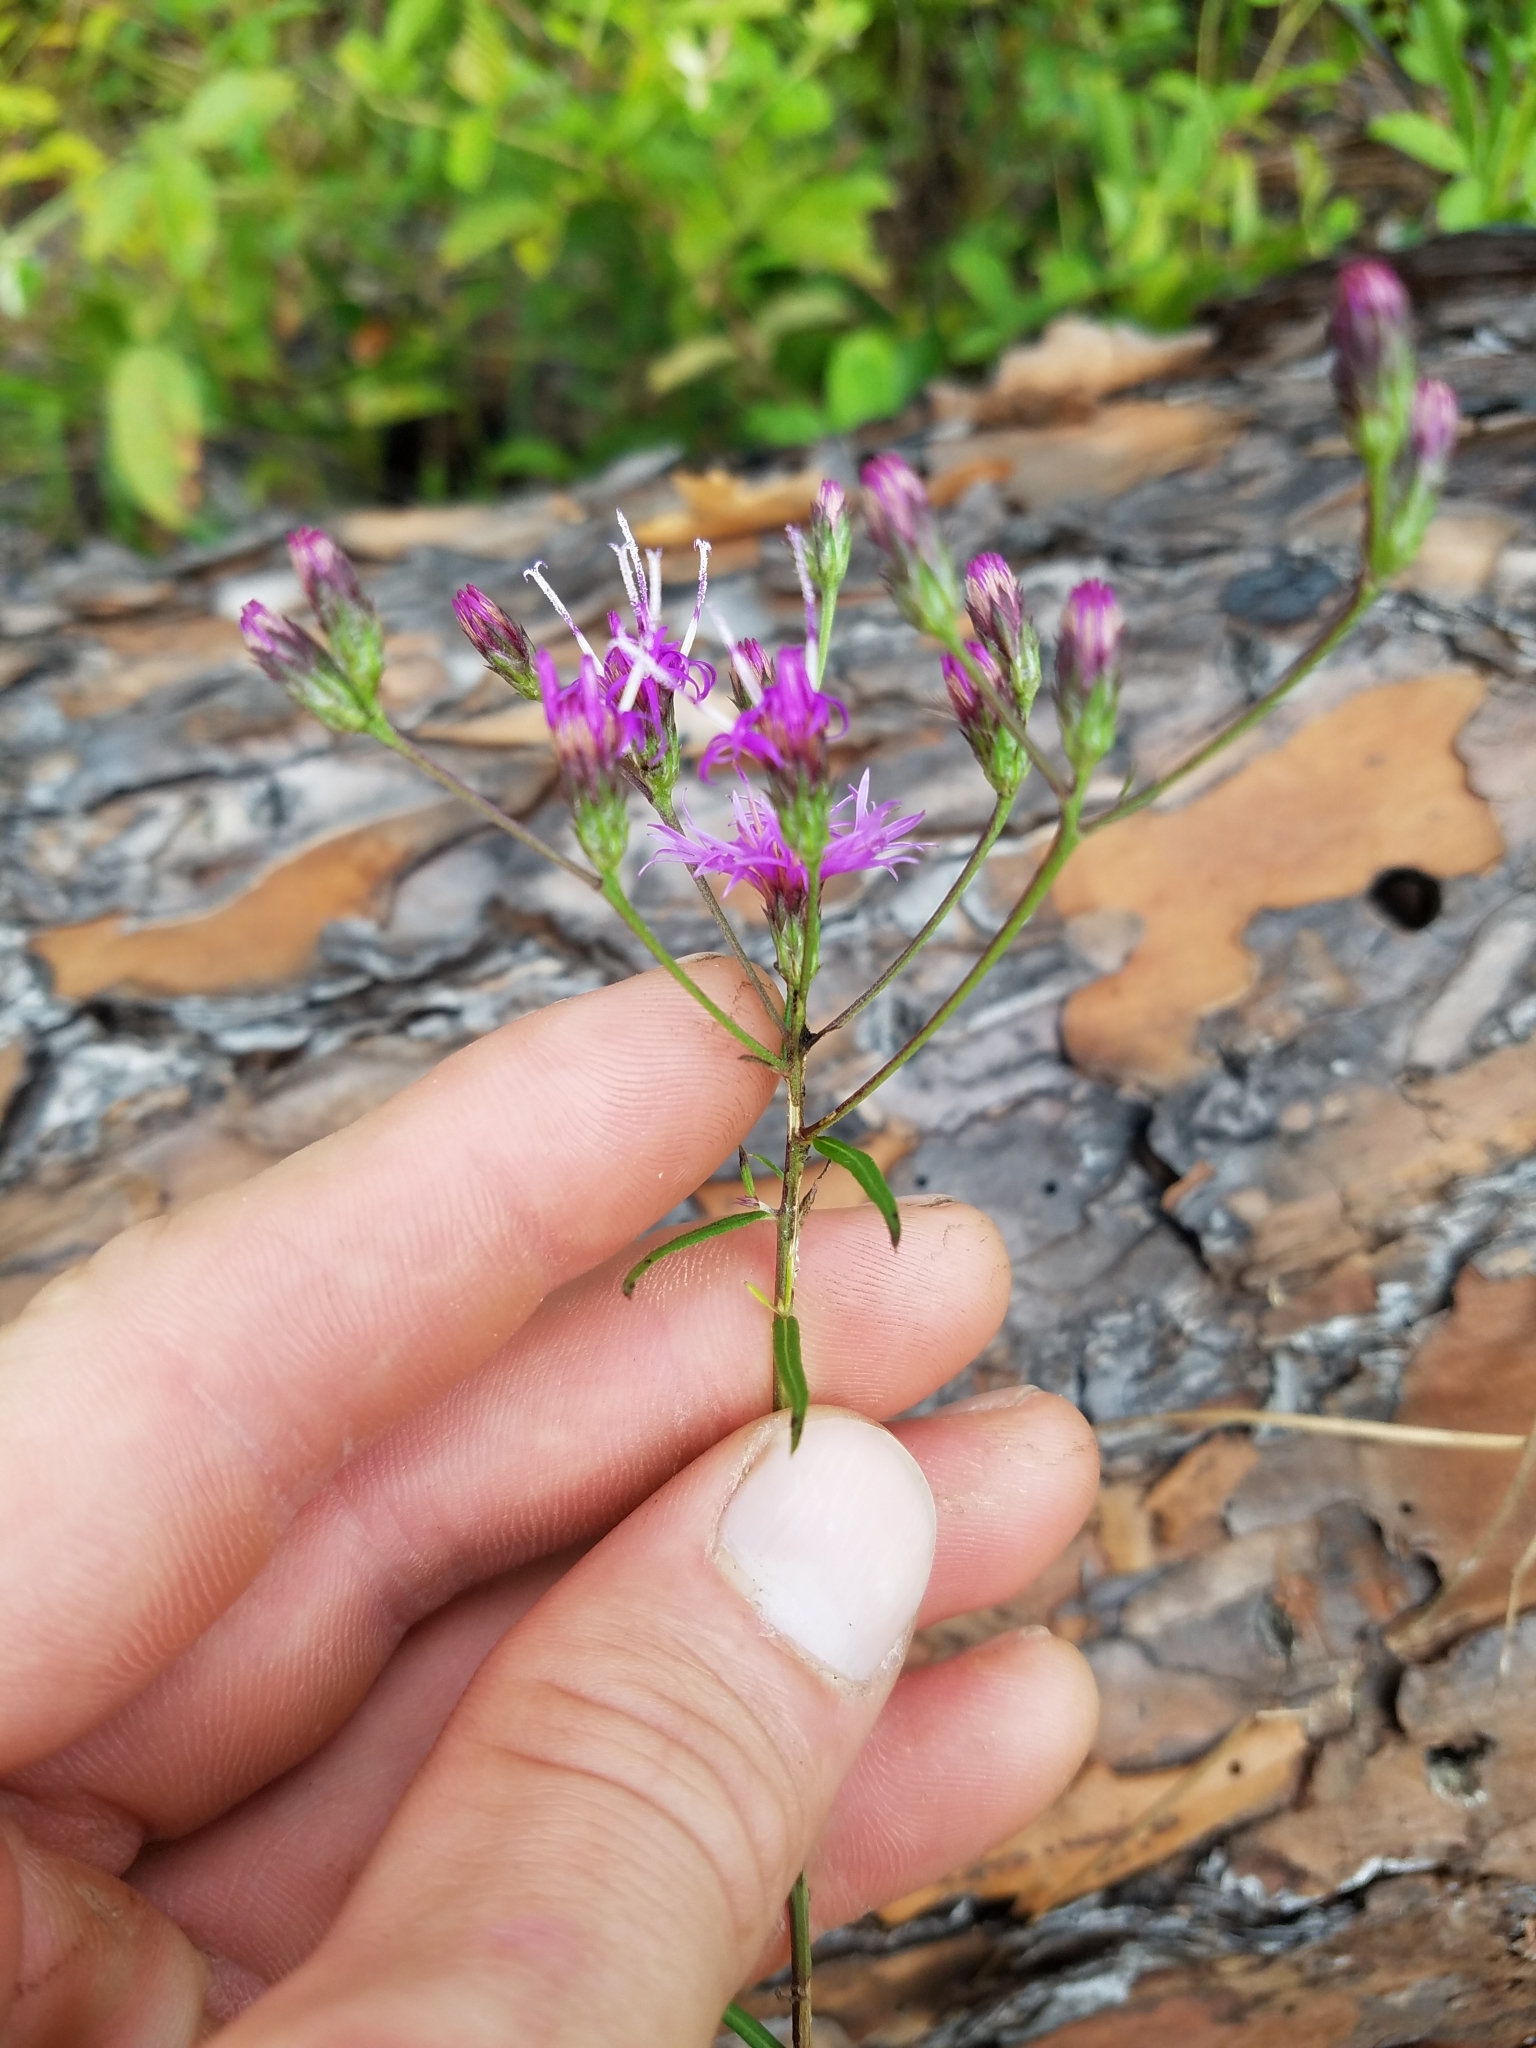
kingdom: Plantae
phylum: Tracheophyta
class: Magnoliopsida
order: Asterales
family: Asteraceae
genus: Vernonia
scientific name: Vernonia angustifolia
